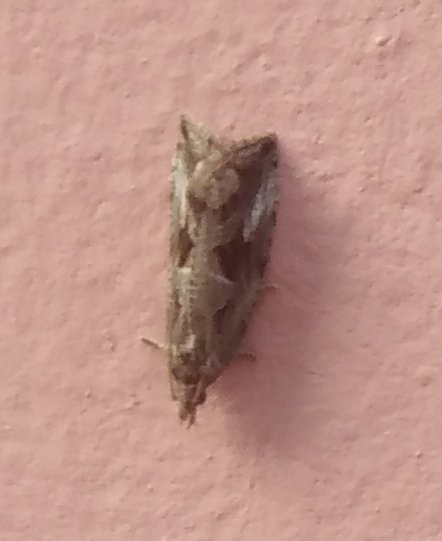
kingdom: Animalia
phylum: Arthropoda
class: Insecta
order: Lepidoptera
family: Tortricidae
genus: Endothenia
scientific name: Endothenia quadrimaculana
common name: Tortricid moth
